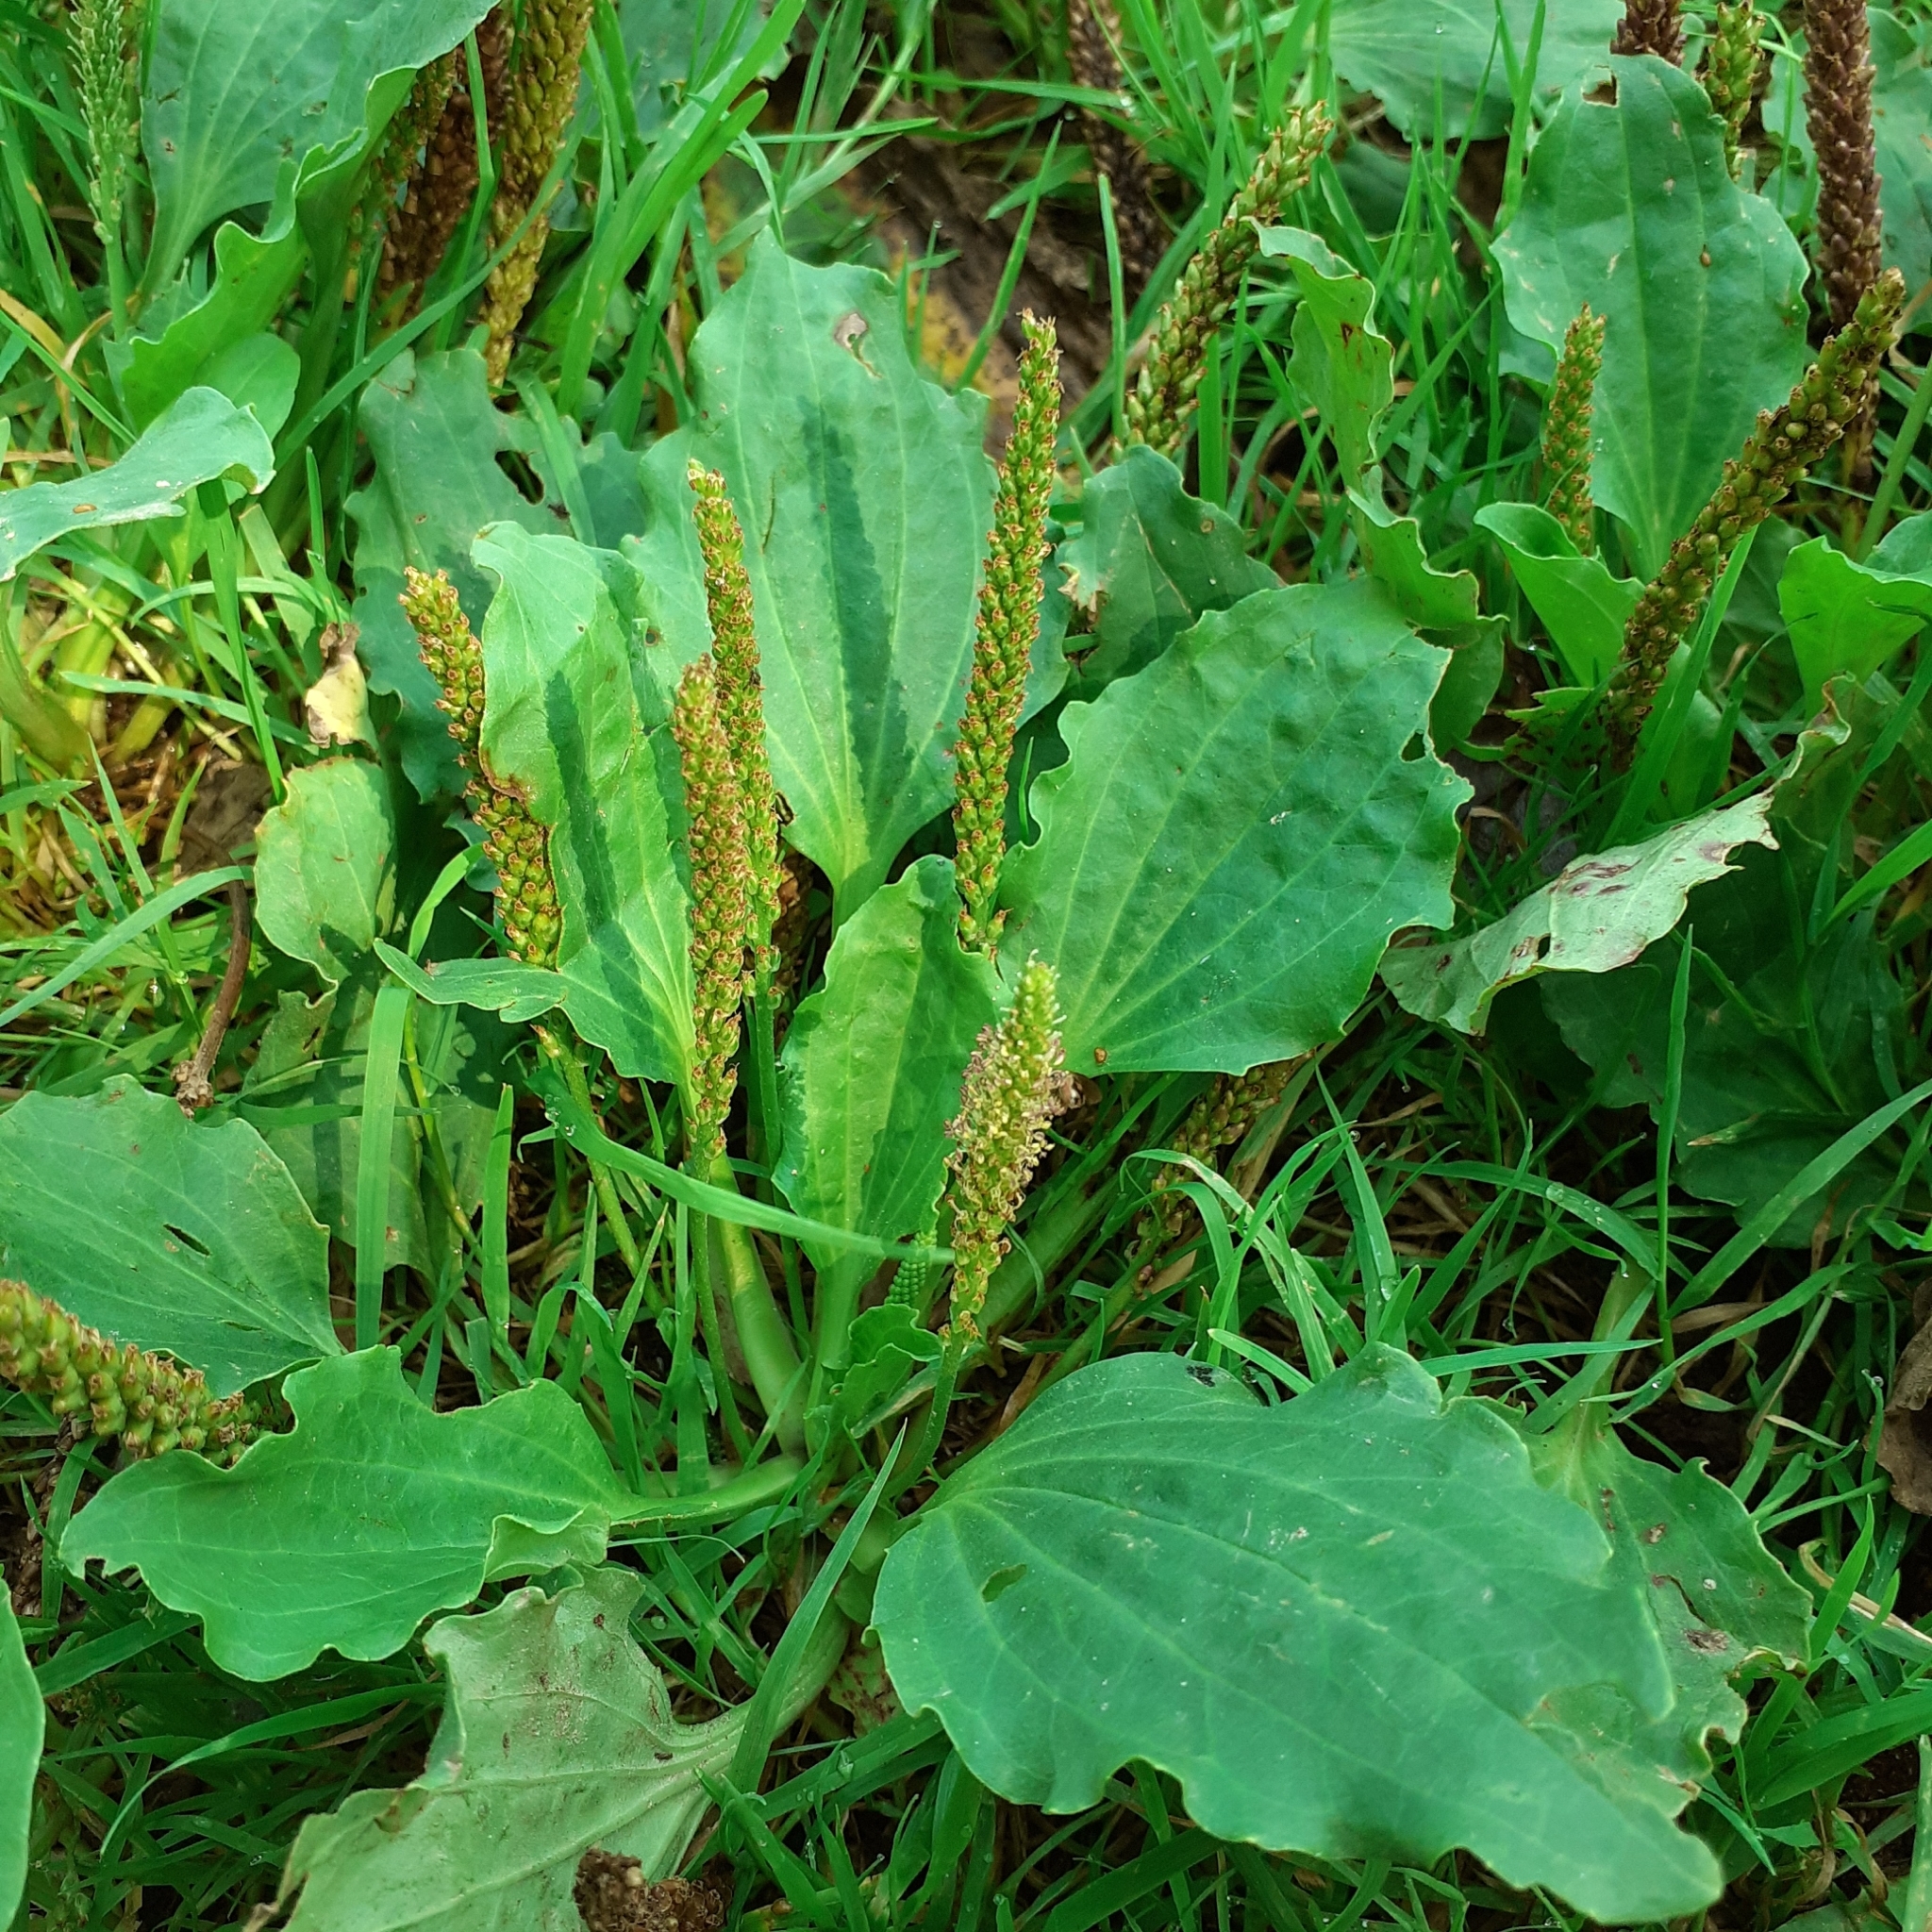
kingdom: Plantae
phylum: Tracheophyta
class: Magnoliopsida
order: Lamiales
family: Plantaginaceae
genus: Plantago
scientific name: Plantago major
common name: Common plantain
